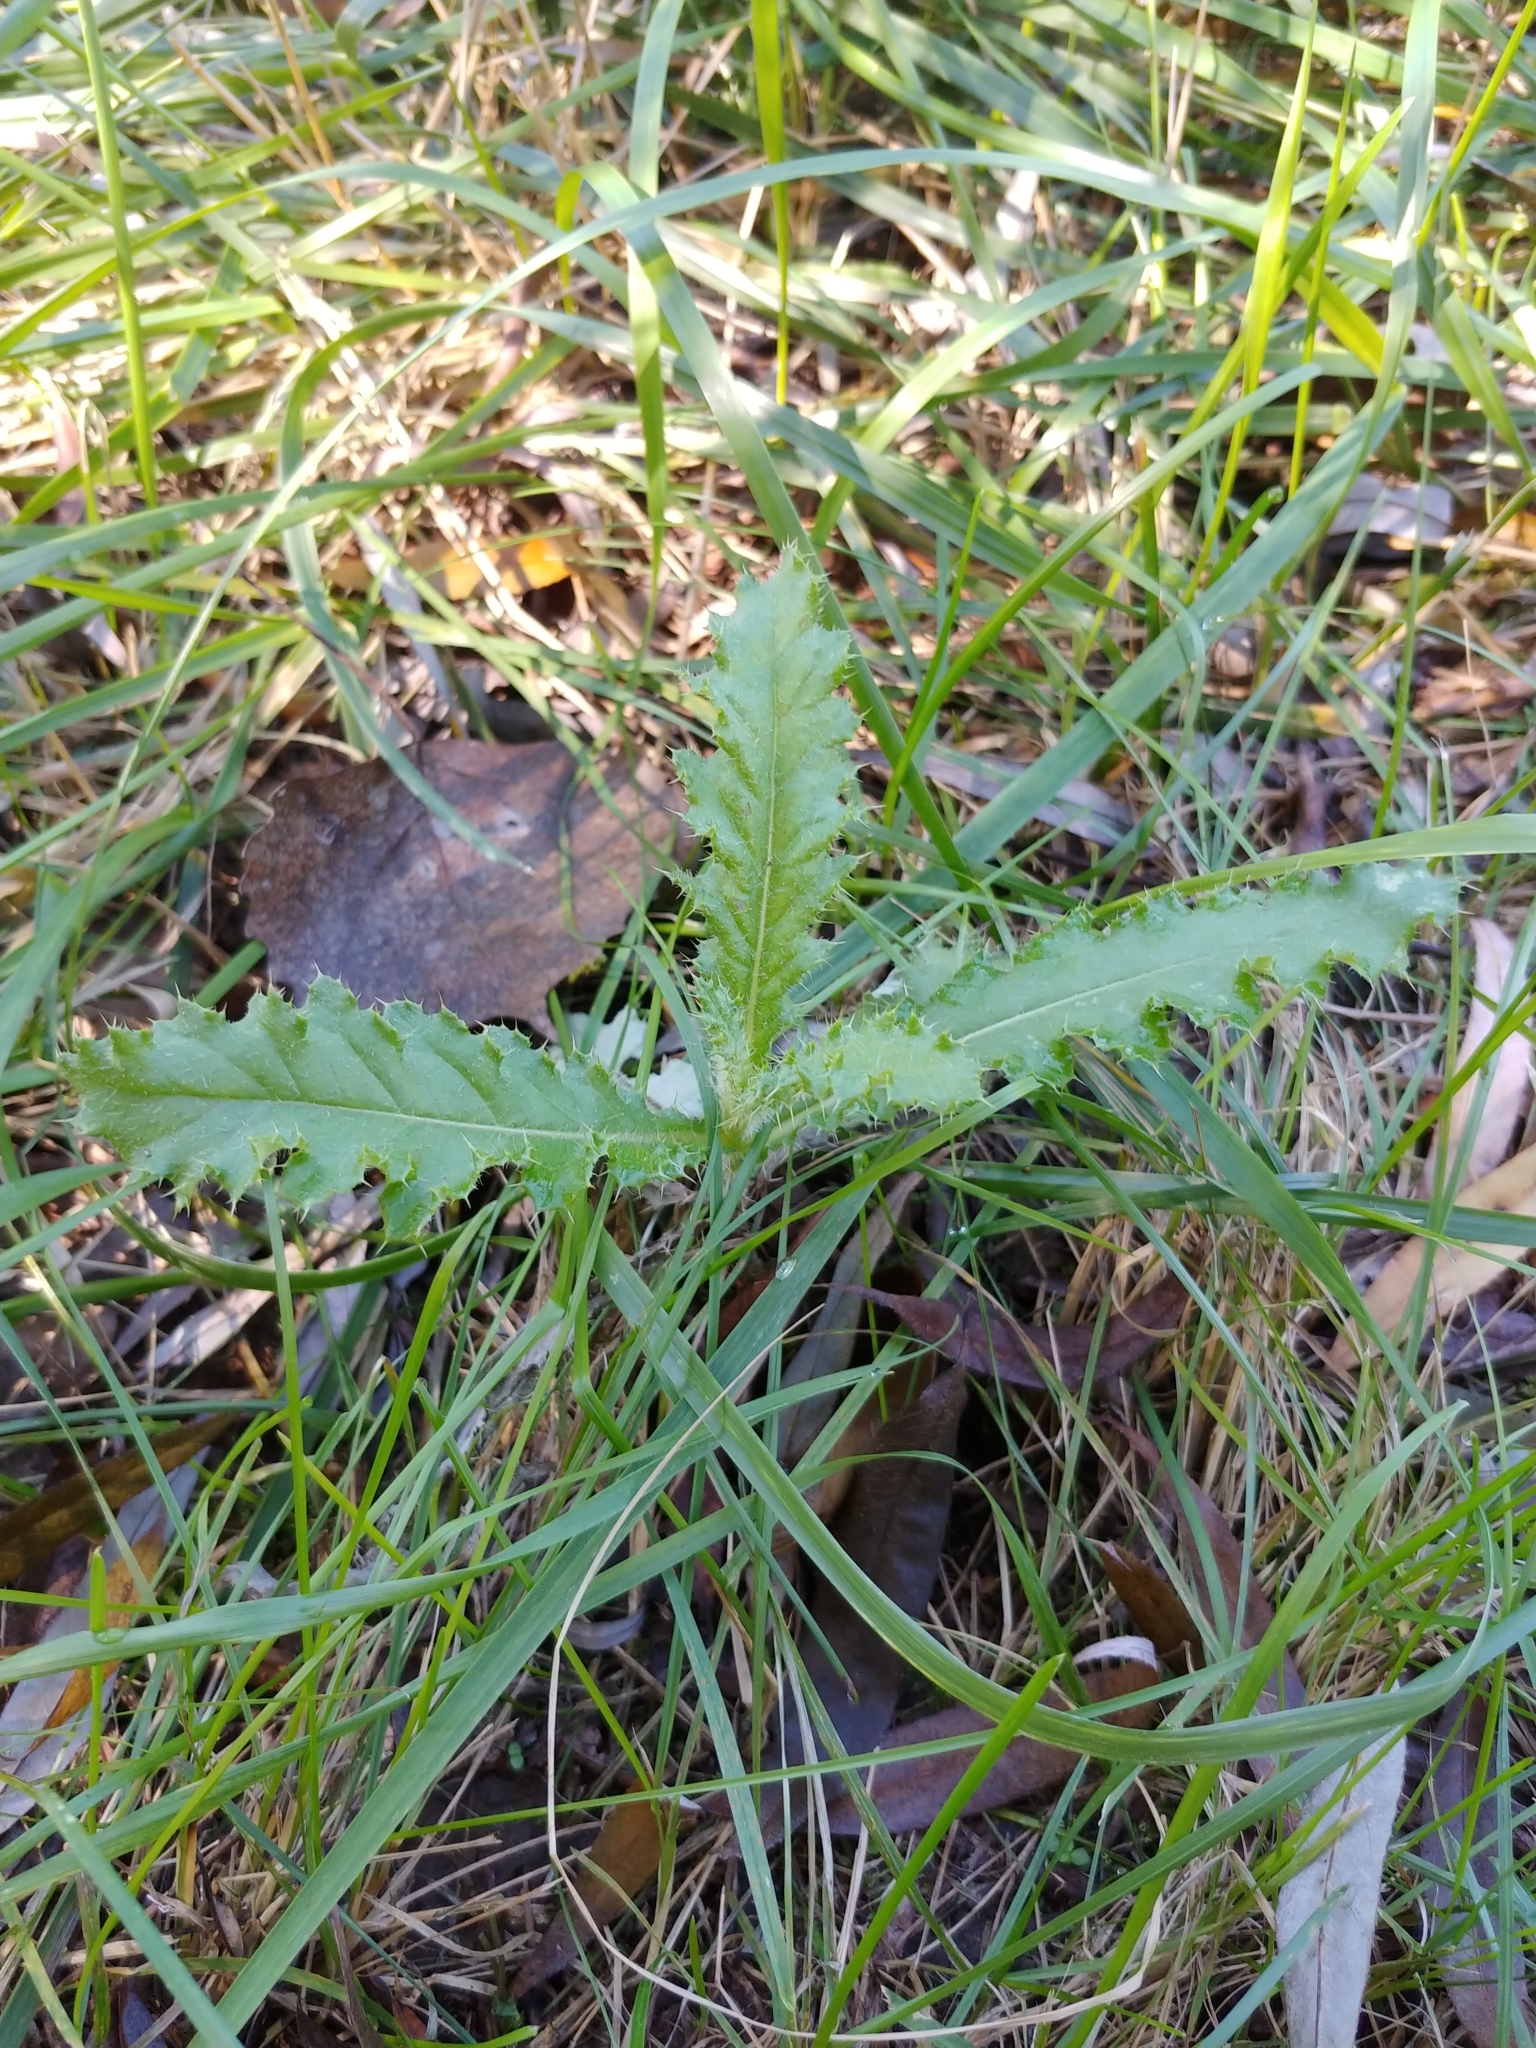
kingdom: Plantae
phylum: Tracheophyta
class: Magnoliopsida
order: Asterales
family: Asteraceae
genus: Cirsium
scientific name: Cirsium arvense
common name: Creeping thistle
